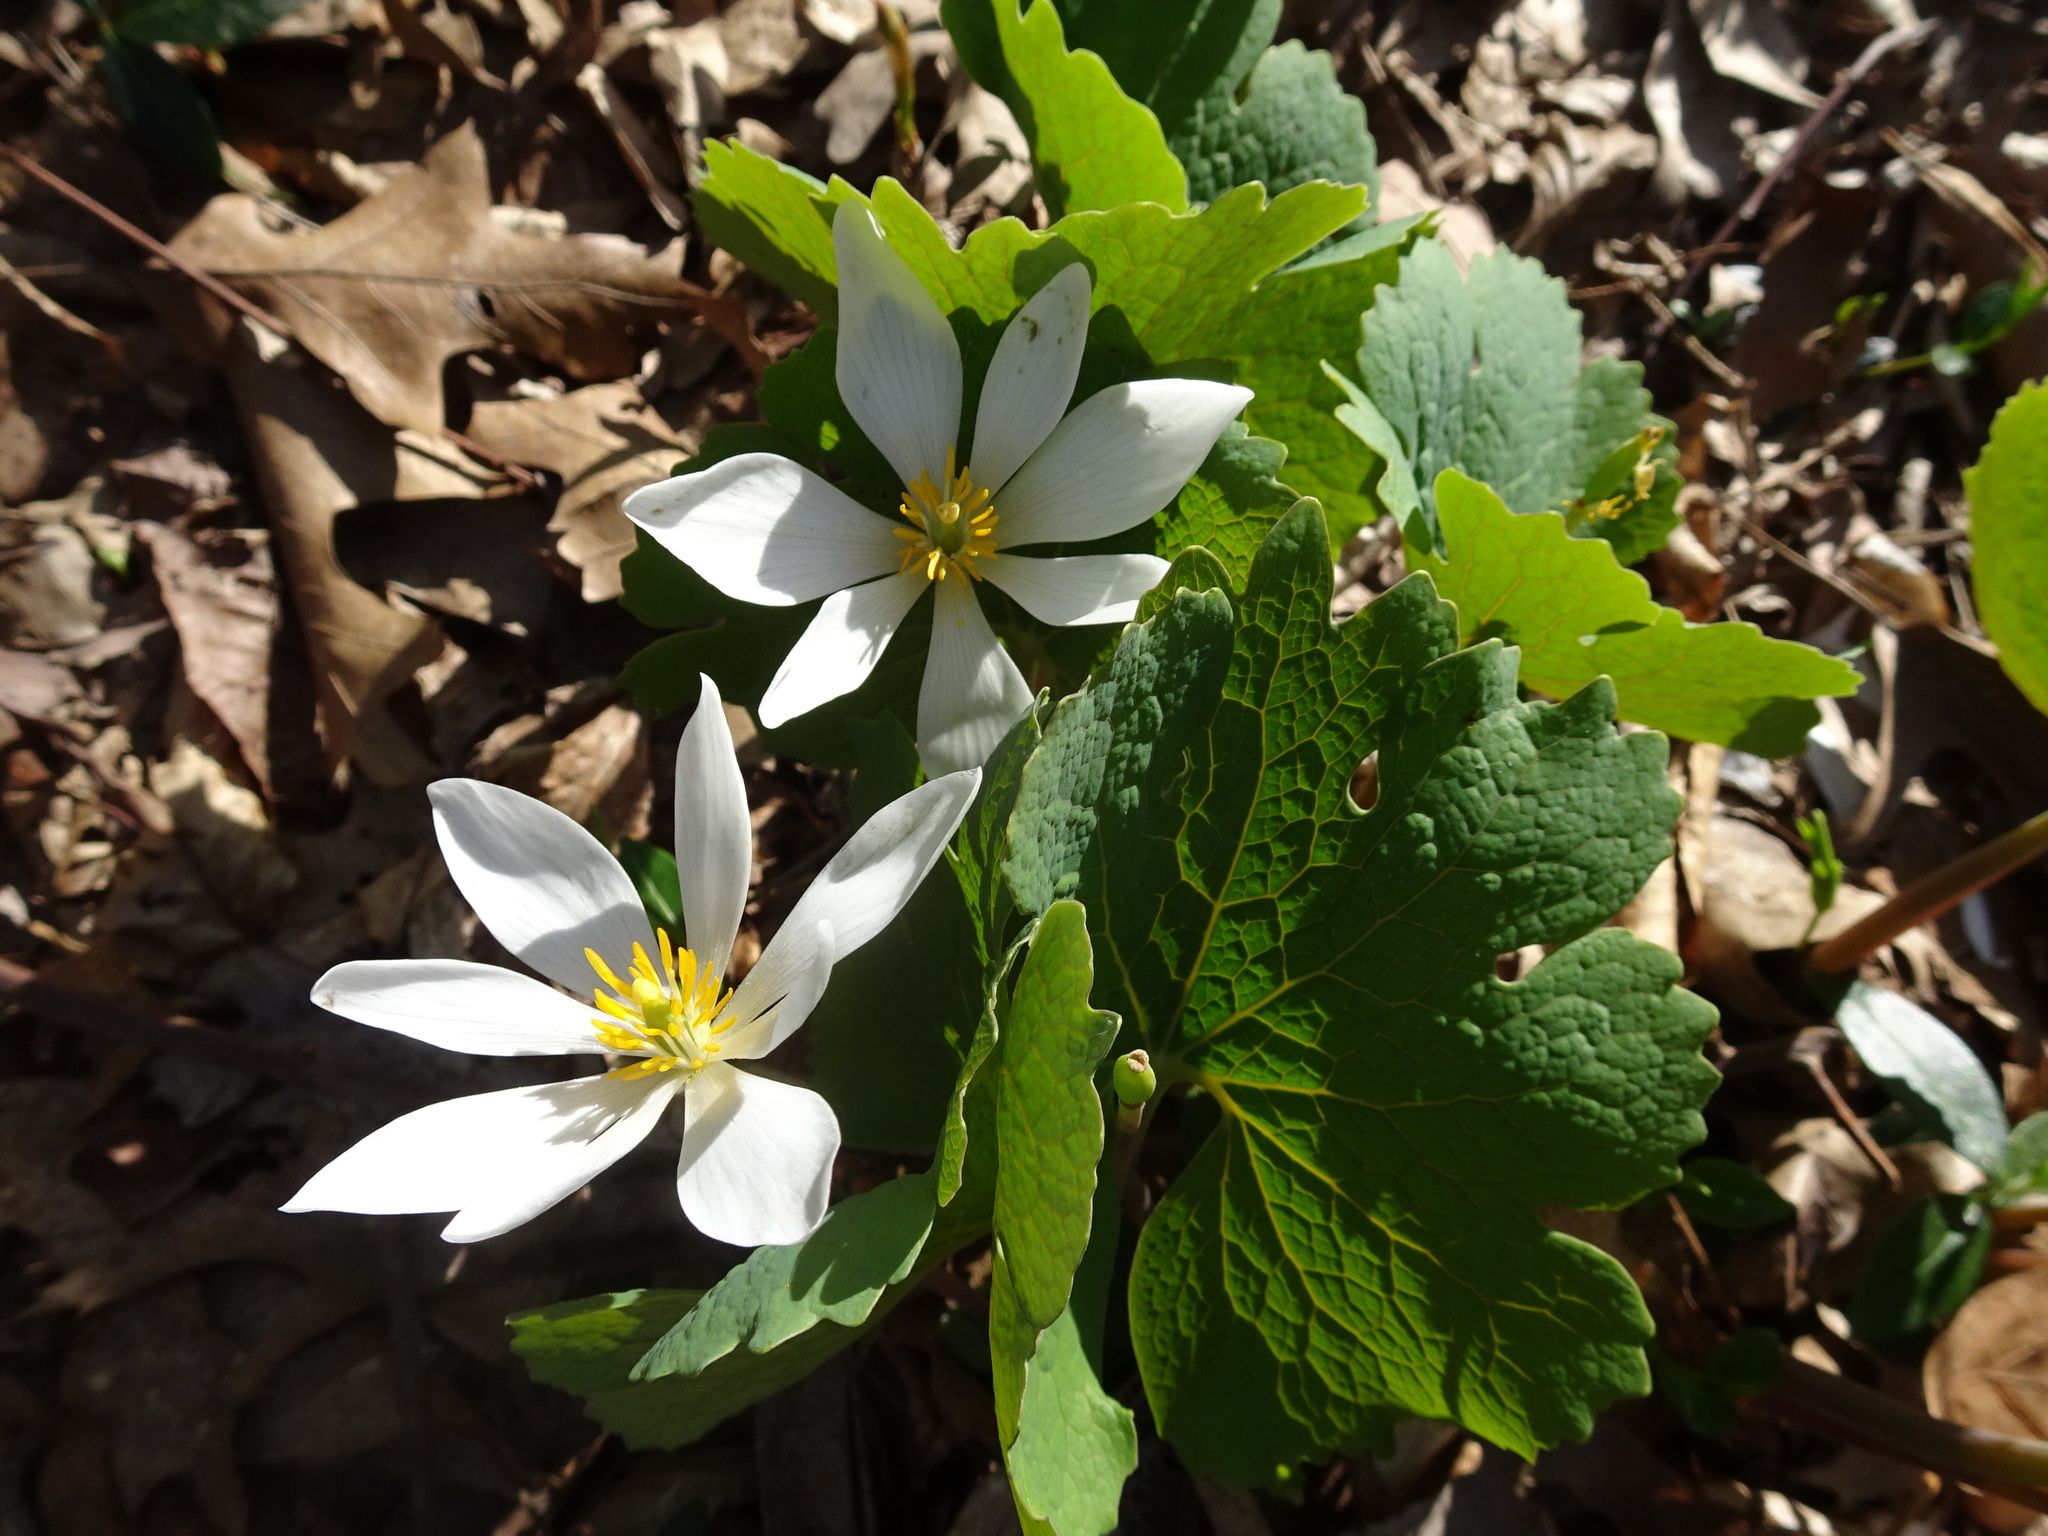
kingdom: Plantae
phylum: Tracheophyta
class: Magnoliopsida
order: Ranunculales
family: Papaveraceae
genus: Sanguinaria
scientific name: Sanguinaria canadensis
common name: Bloodroot
